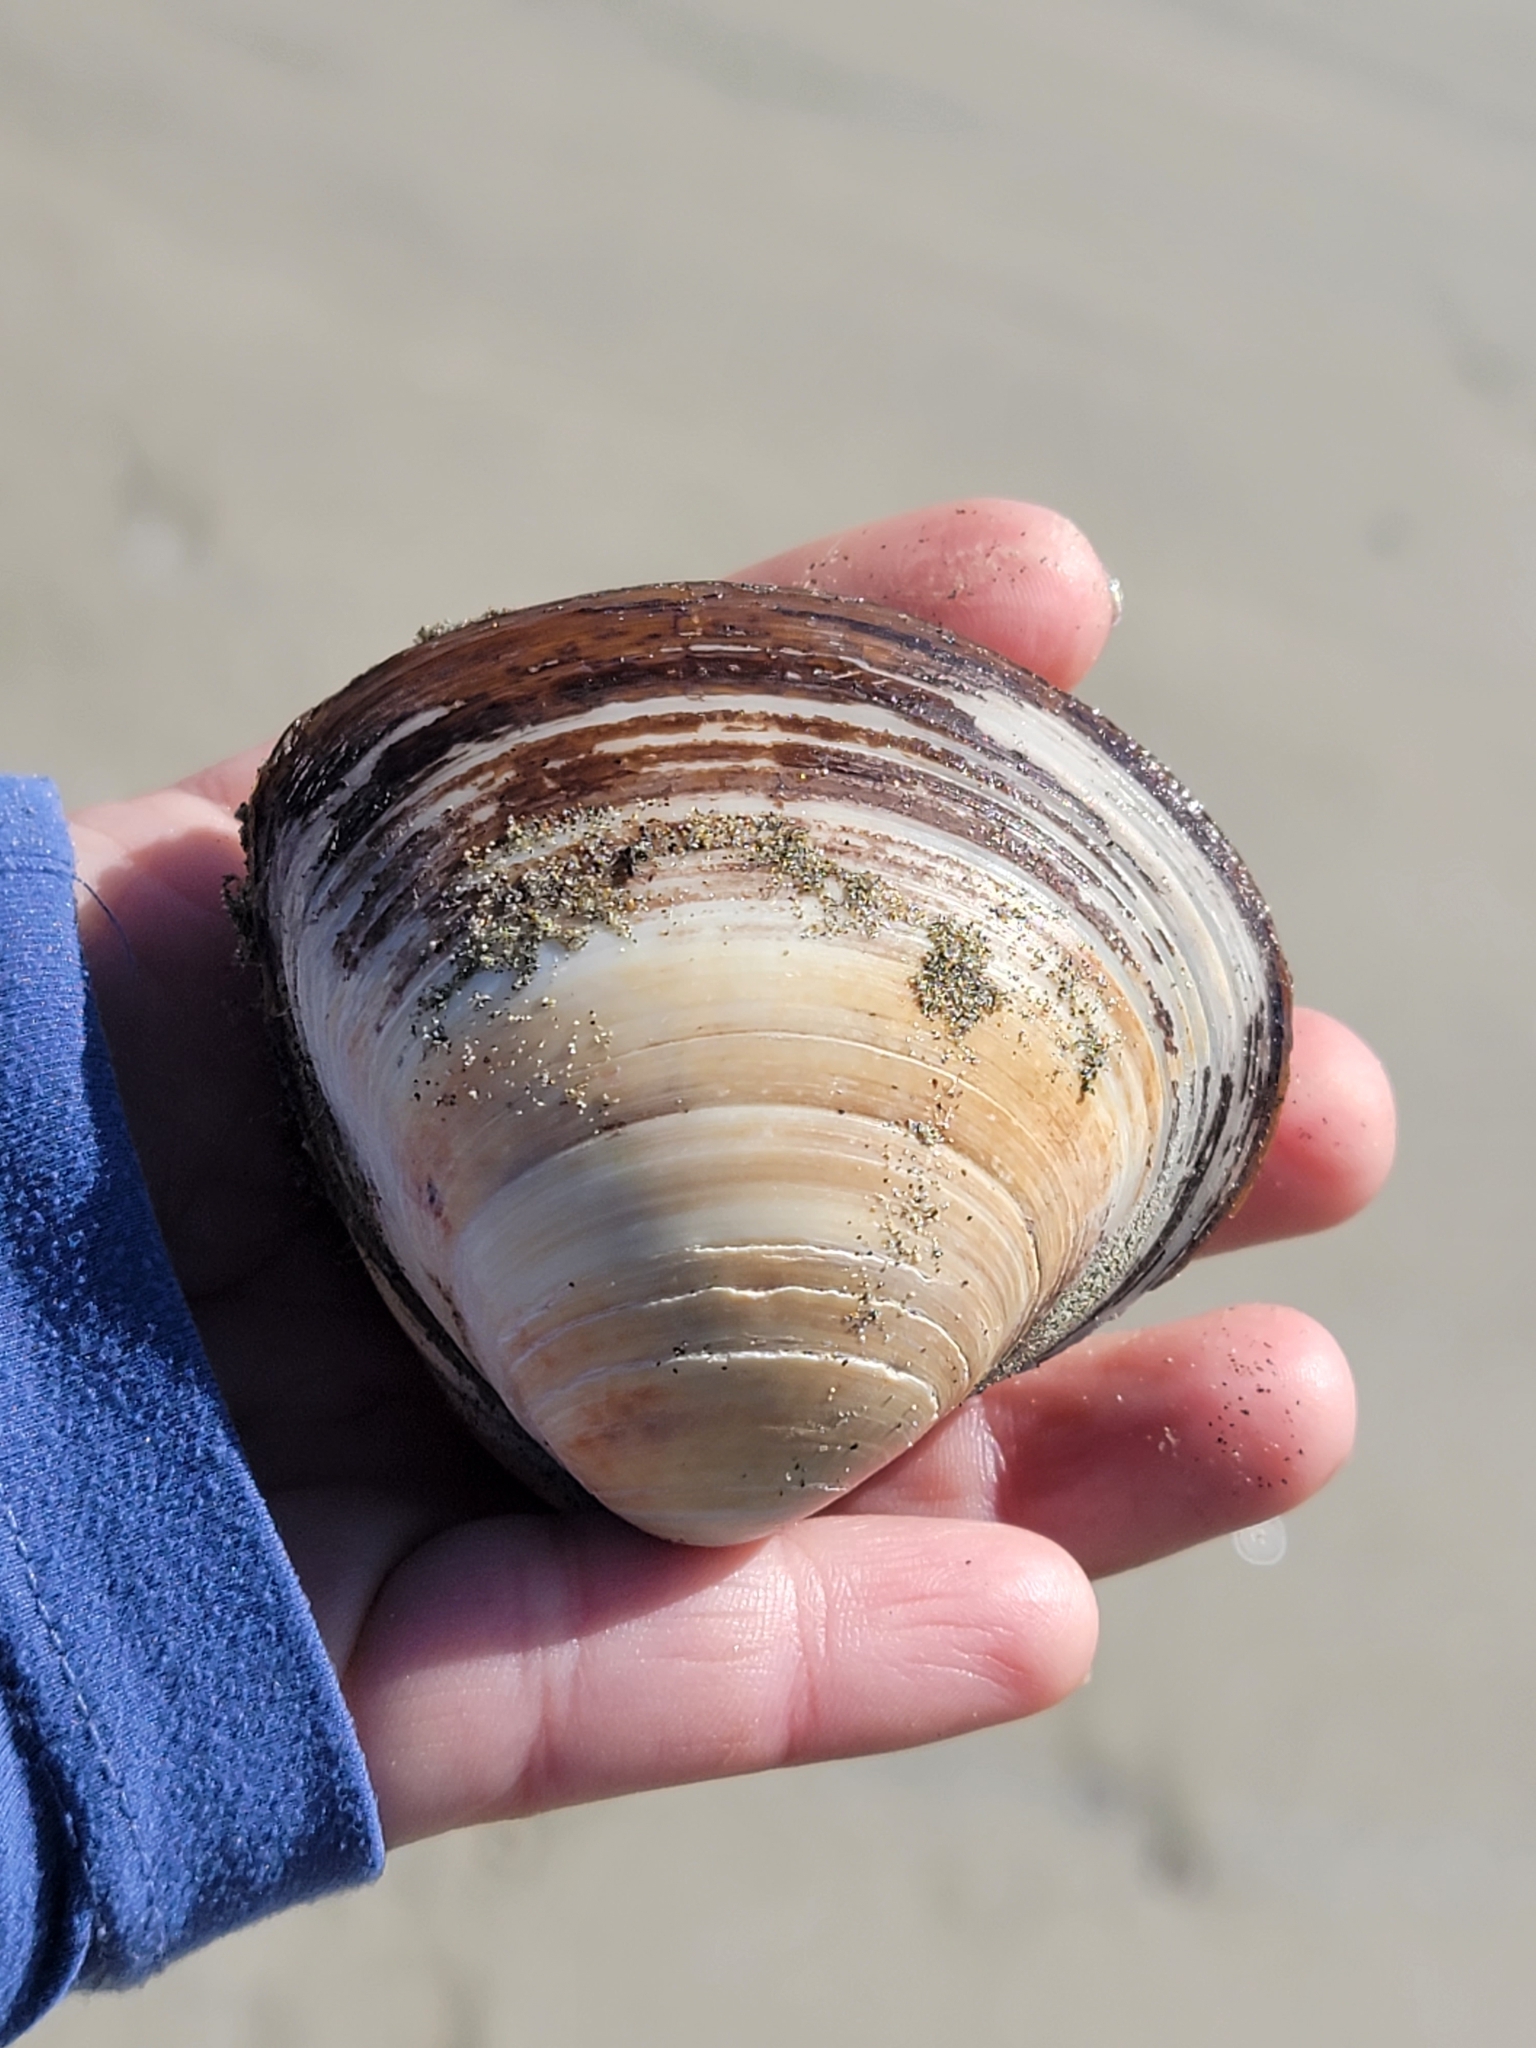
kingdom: Animalia
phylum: Mollusca
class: Bivalvia
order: Venerida
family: Mactridae
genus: Spisula
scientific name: Spisula discors
